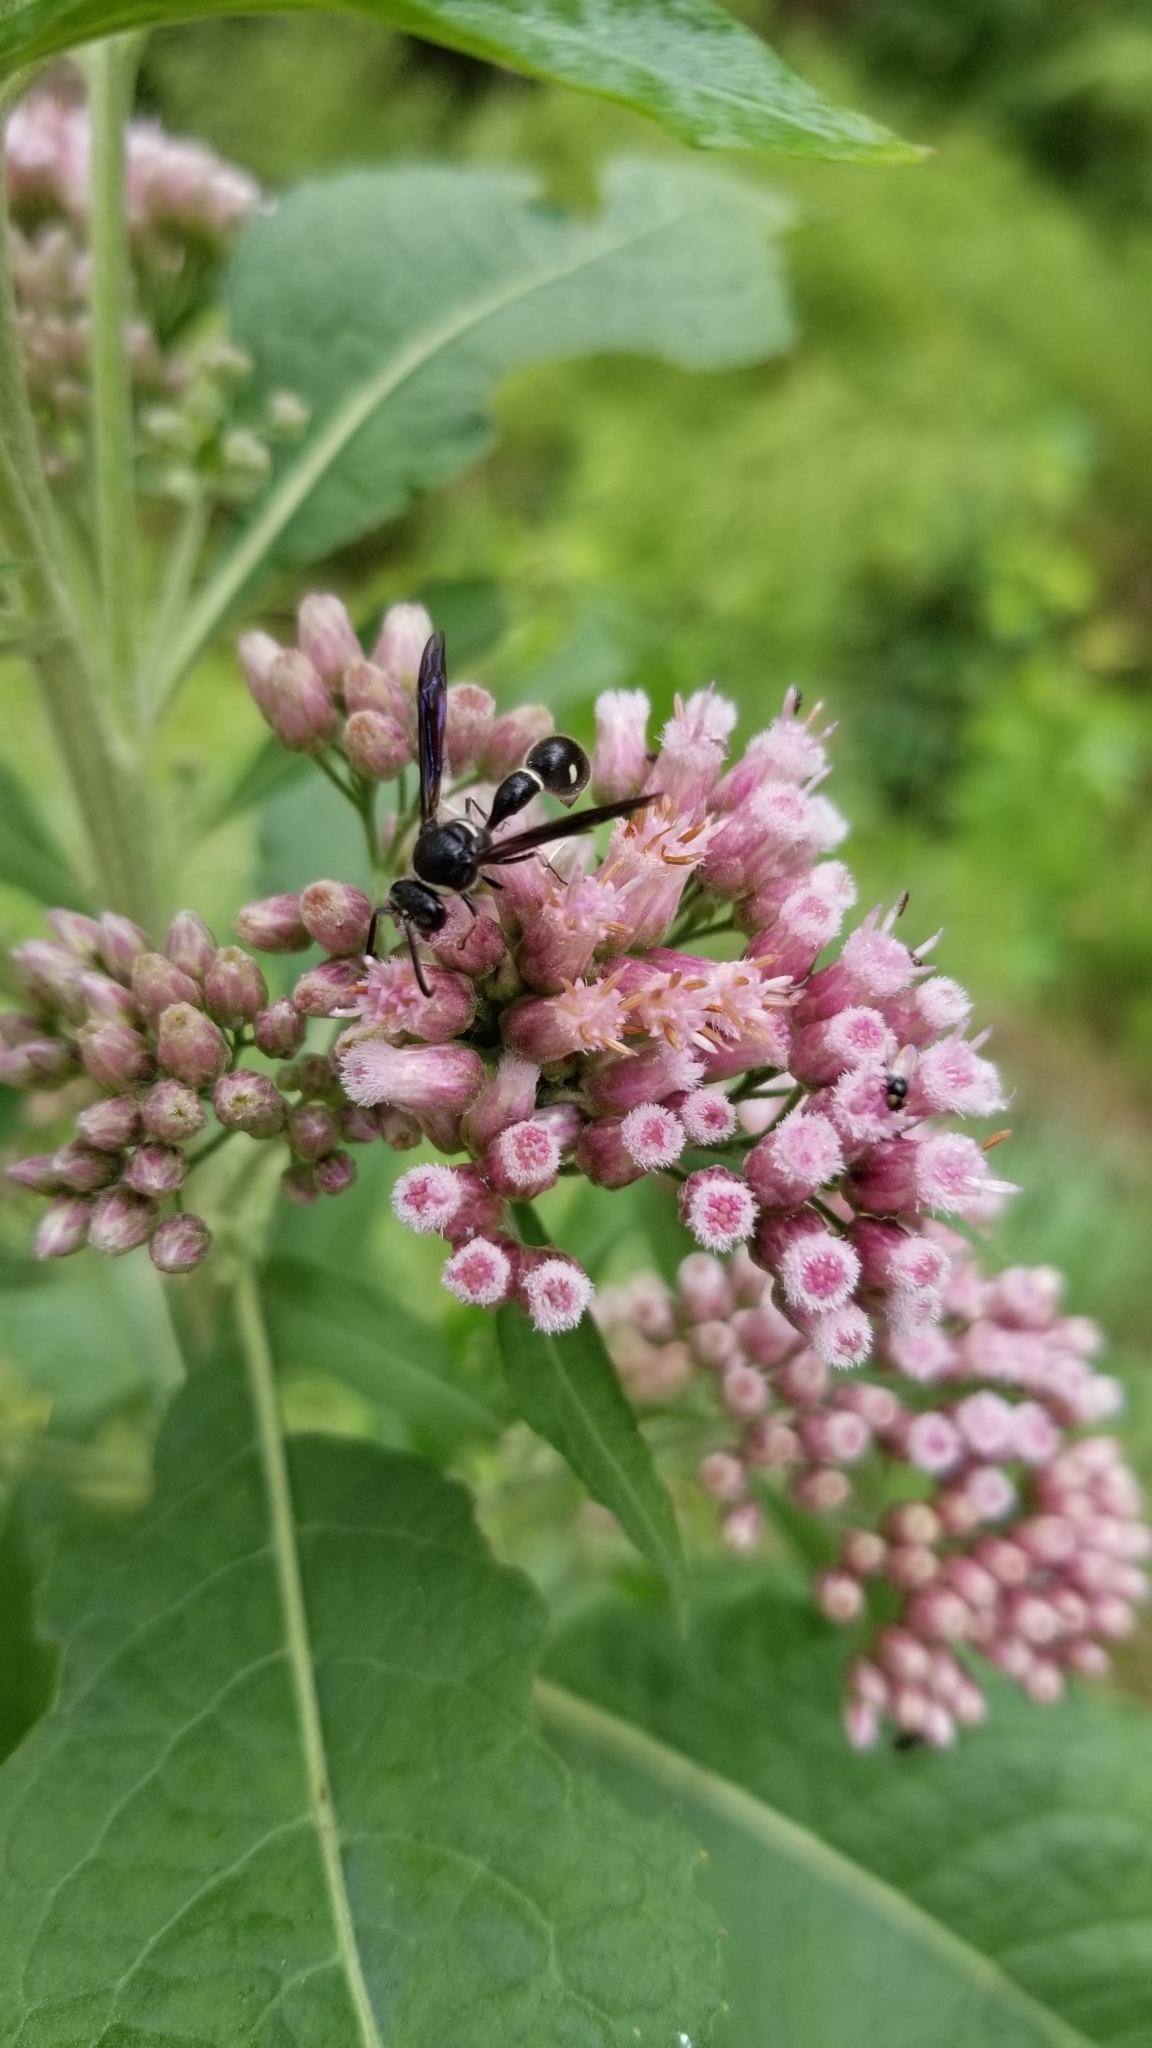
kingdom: Animalia
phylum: Arthropoda
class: Insecta
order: Hymenoptera
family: Vespidae
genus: Eumenes
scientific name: Eumenes fraternus
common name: Fraternal potter wasp
